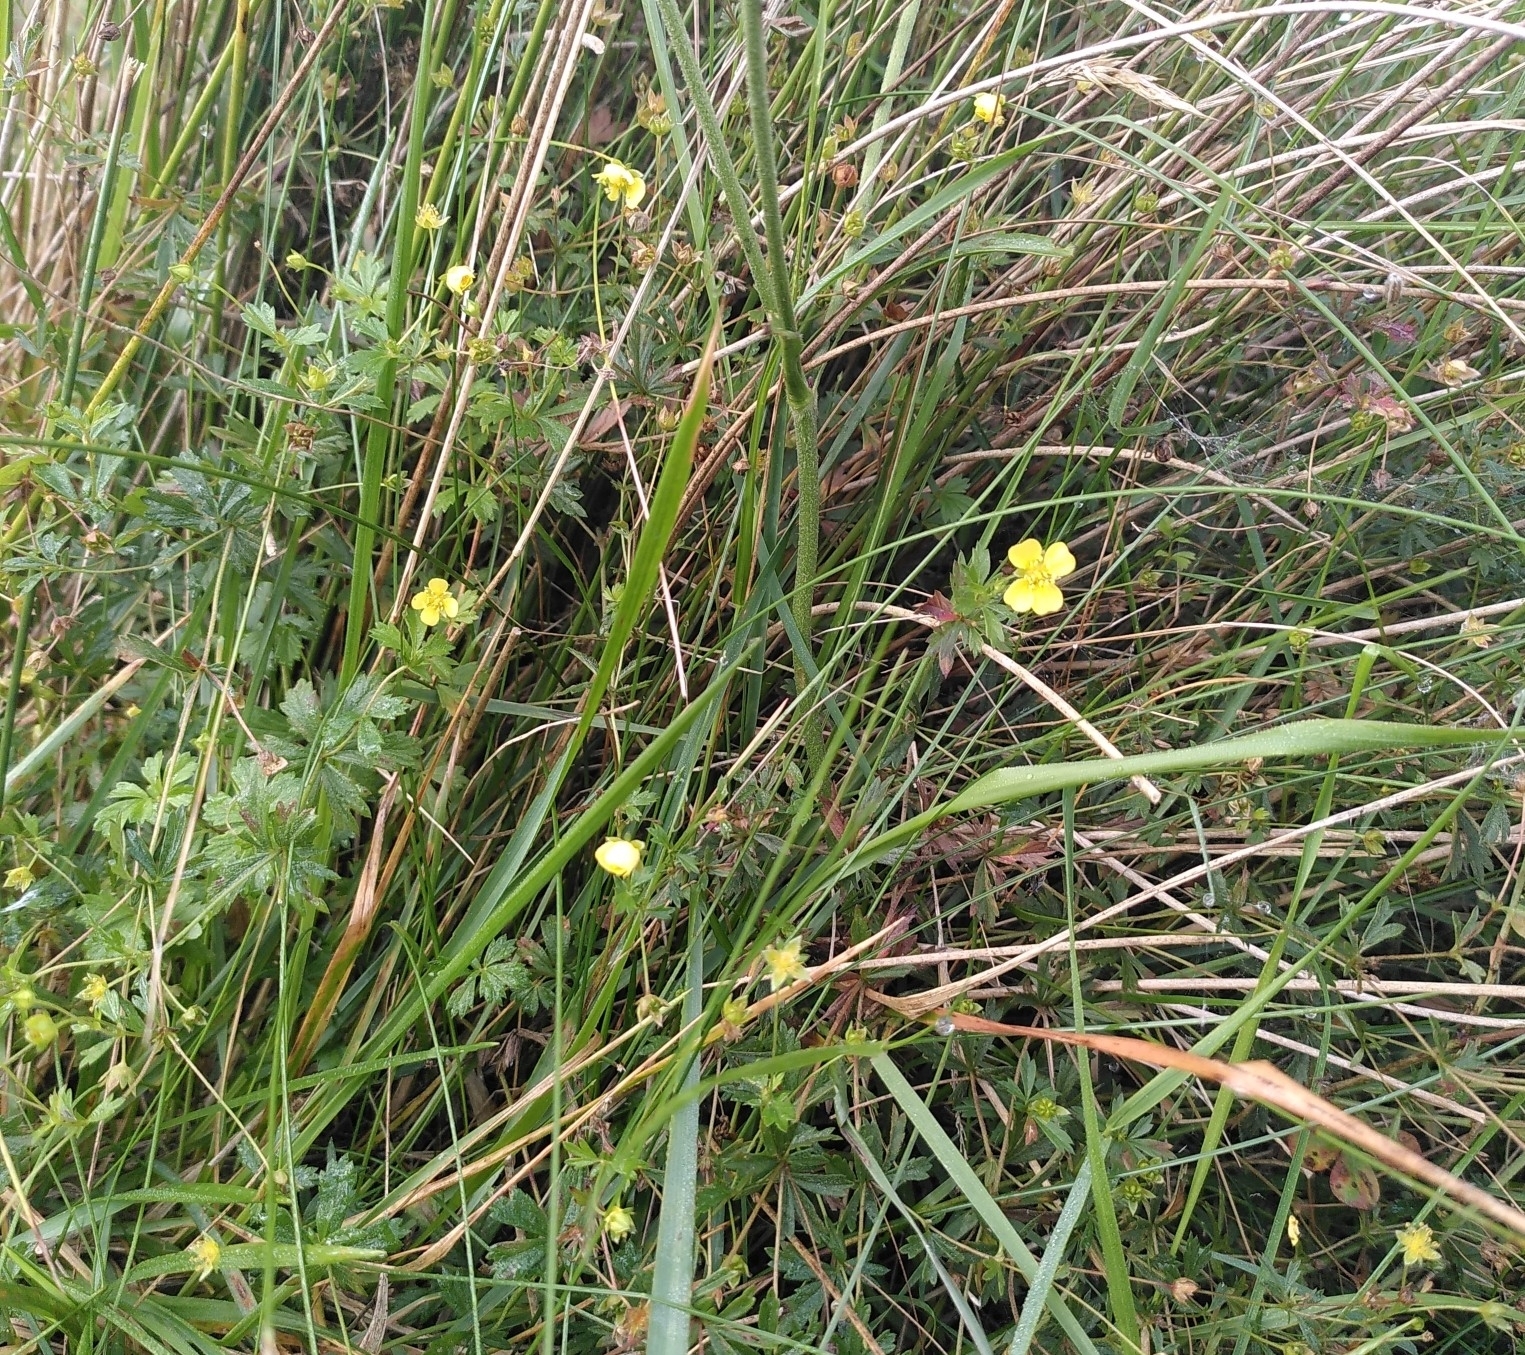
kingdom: Plantae
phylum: Tracheophyta
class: Magnoliopsida
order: Rosales
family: Rosaceae
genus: Potentilla
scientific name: Potentilla erecta
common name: Tormentil
